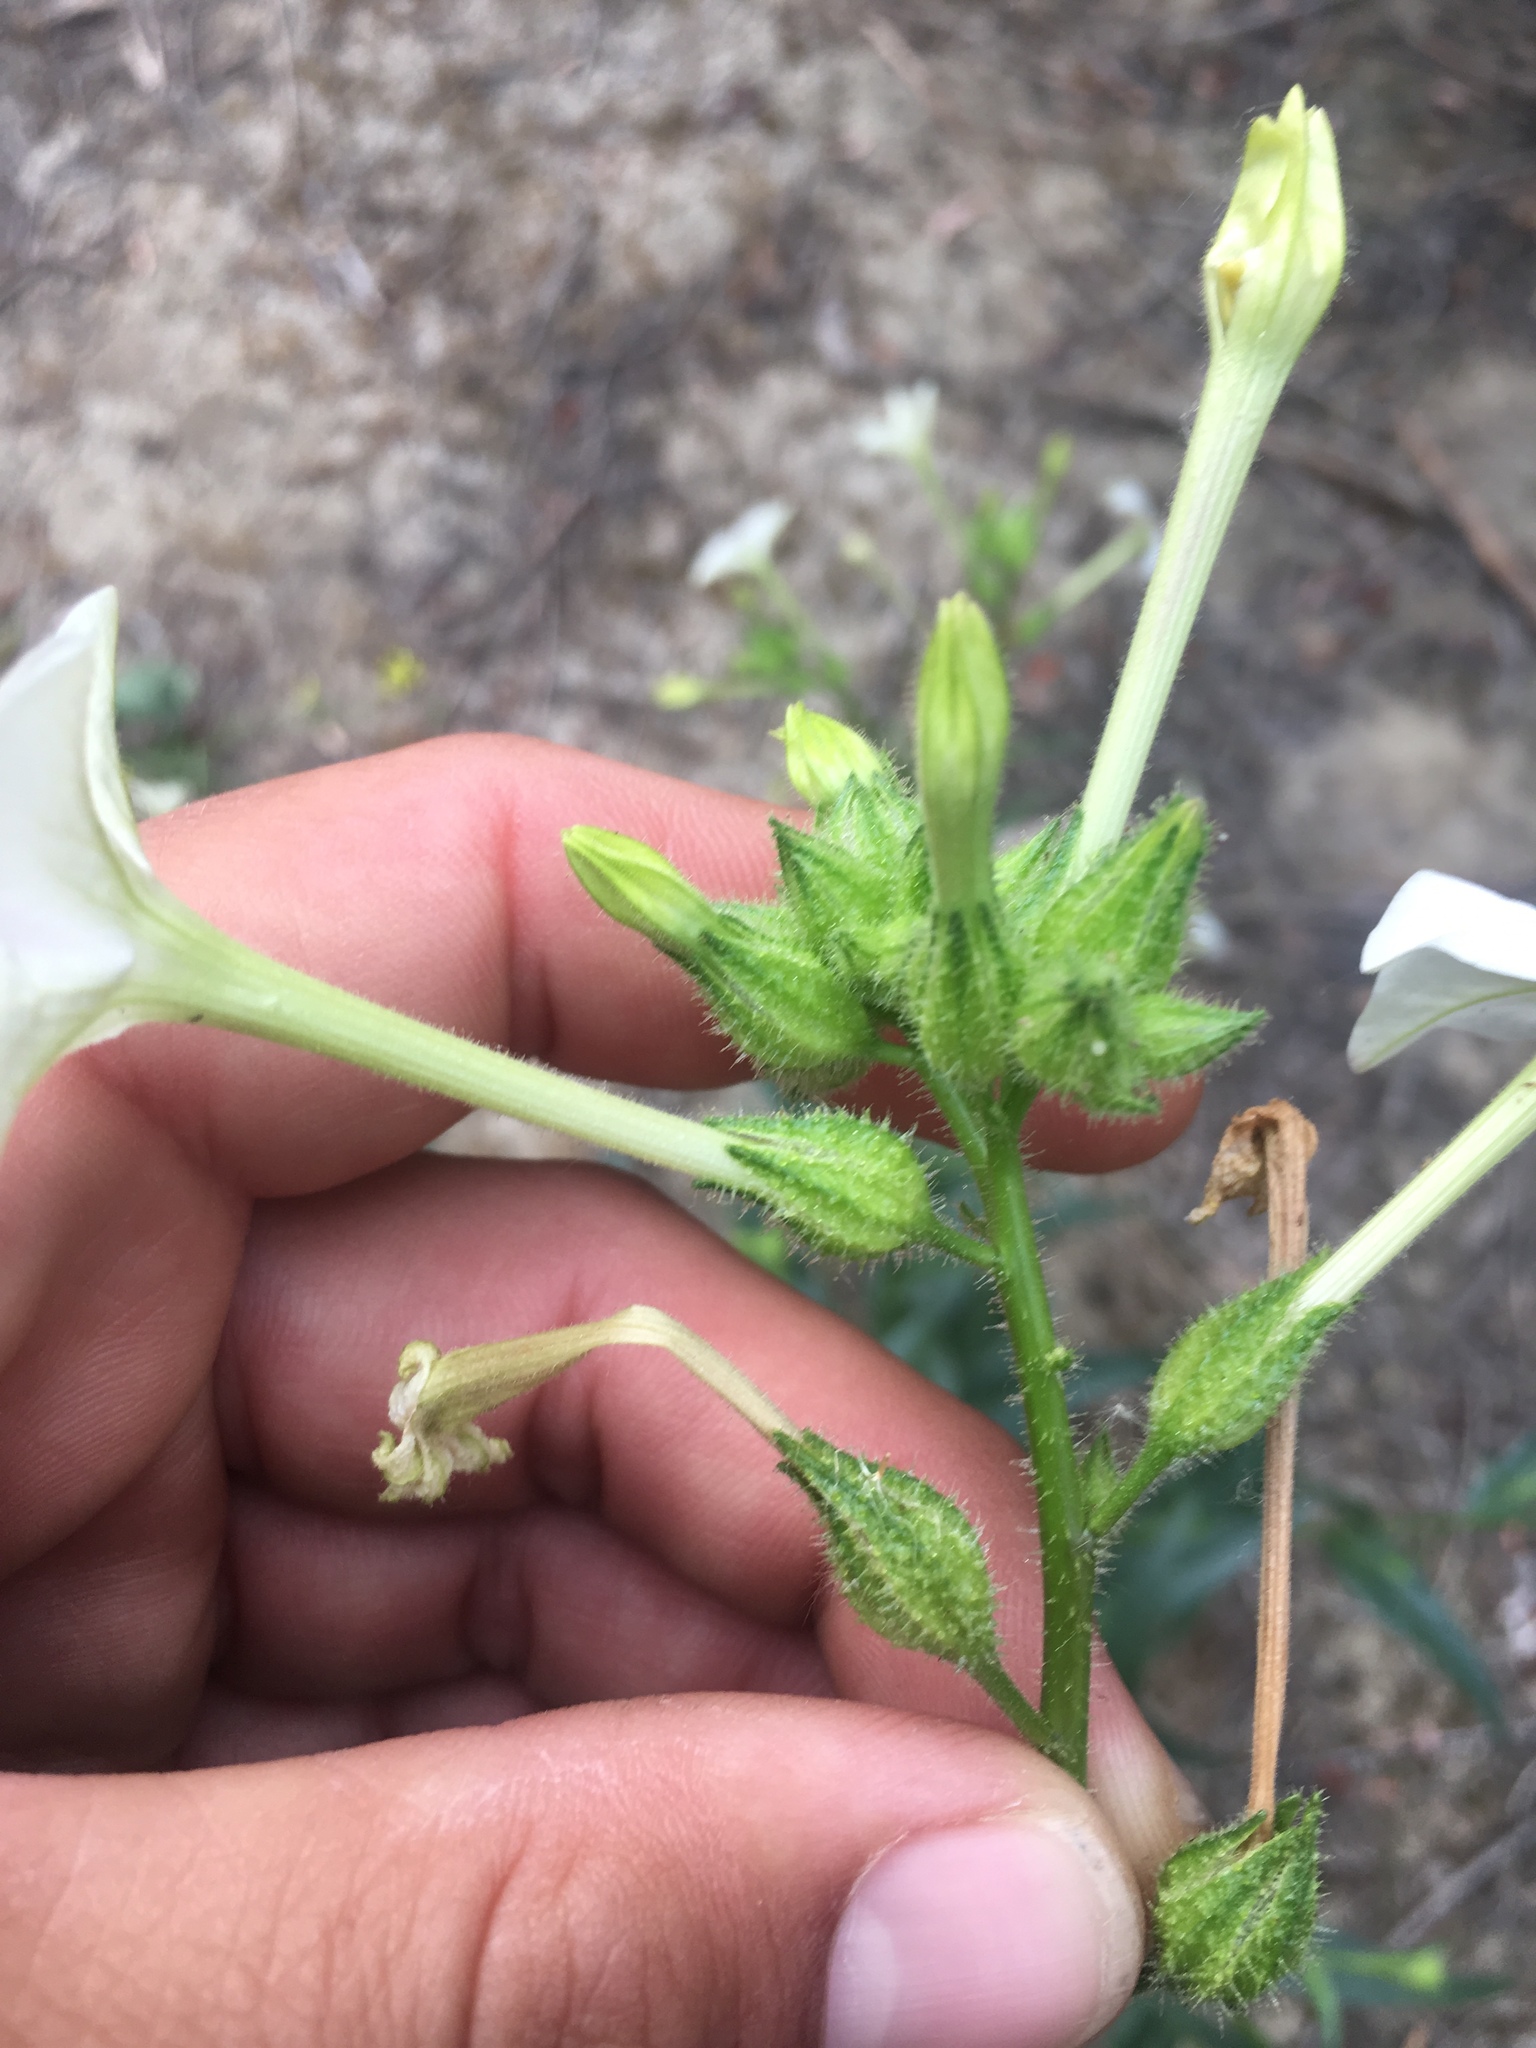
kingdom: Plantae
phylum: Tracheophyta
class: Magnoliopsida
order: Solanales
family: Solanaceae
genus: Nicotiana
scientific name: Nicotiana quadrivalvis
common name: Indian tobacco
